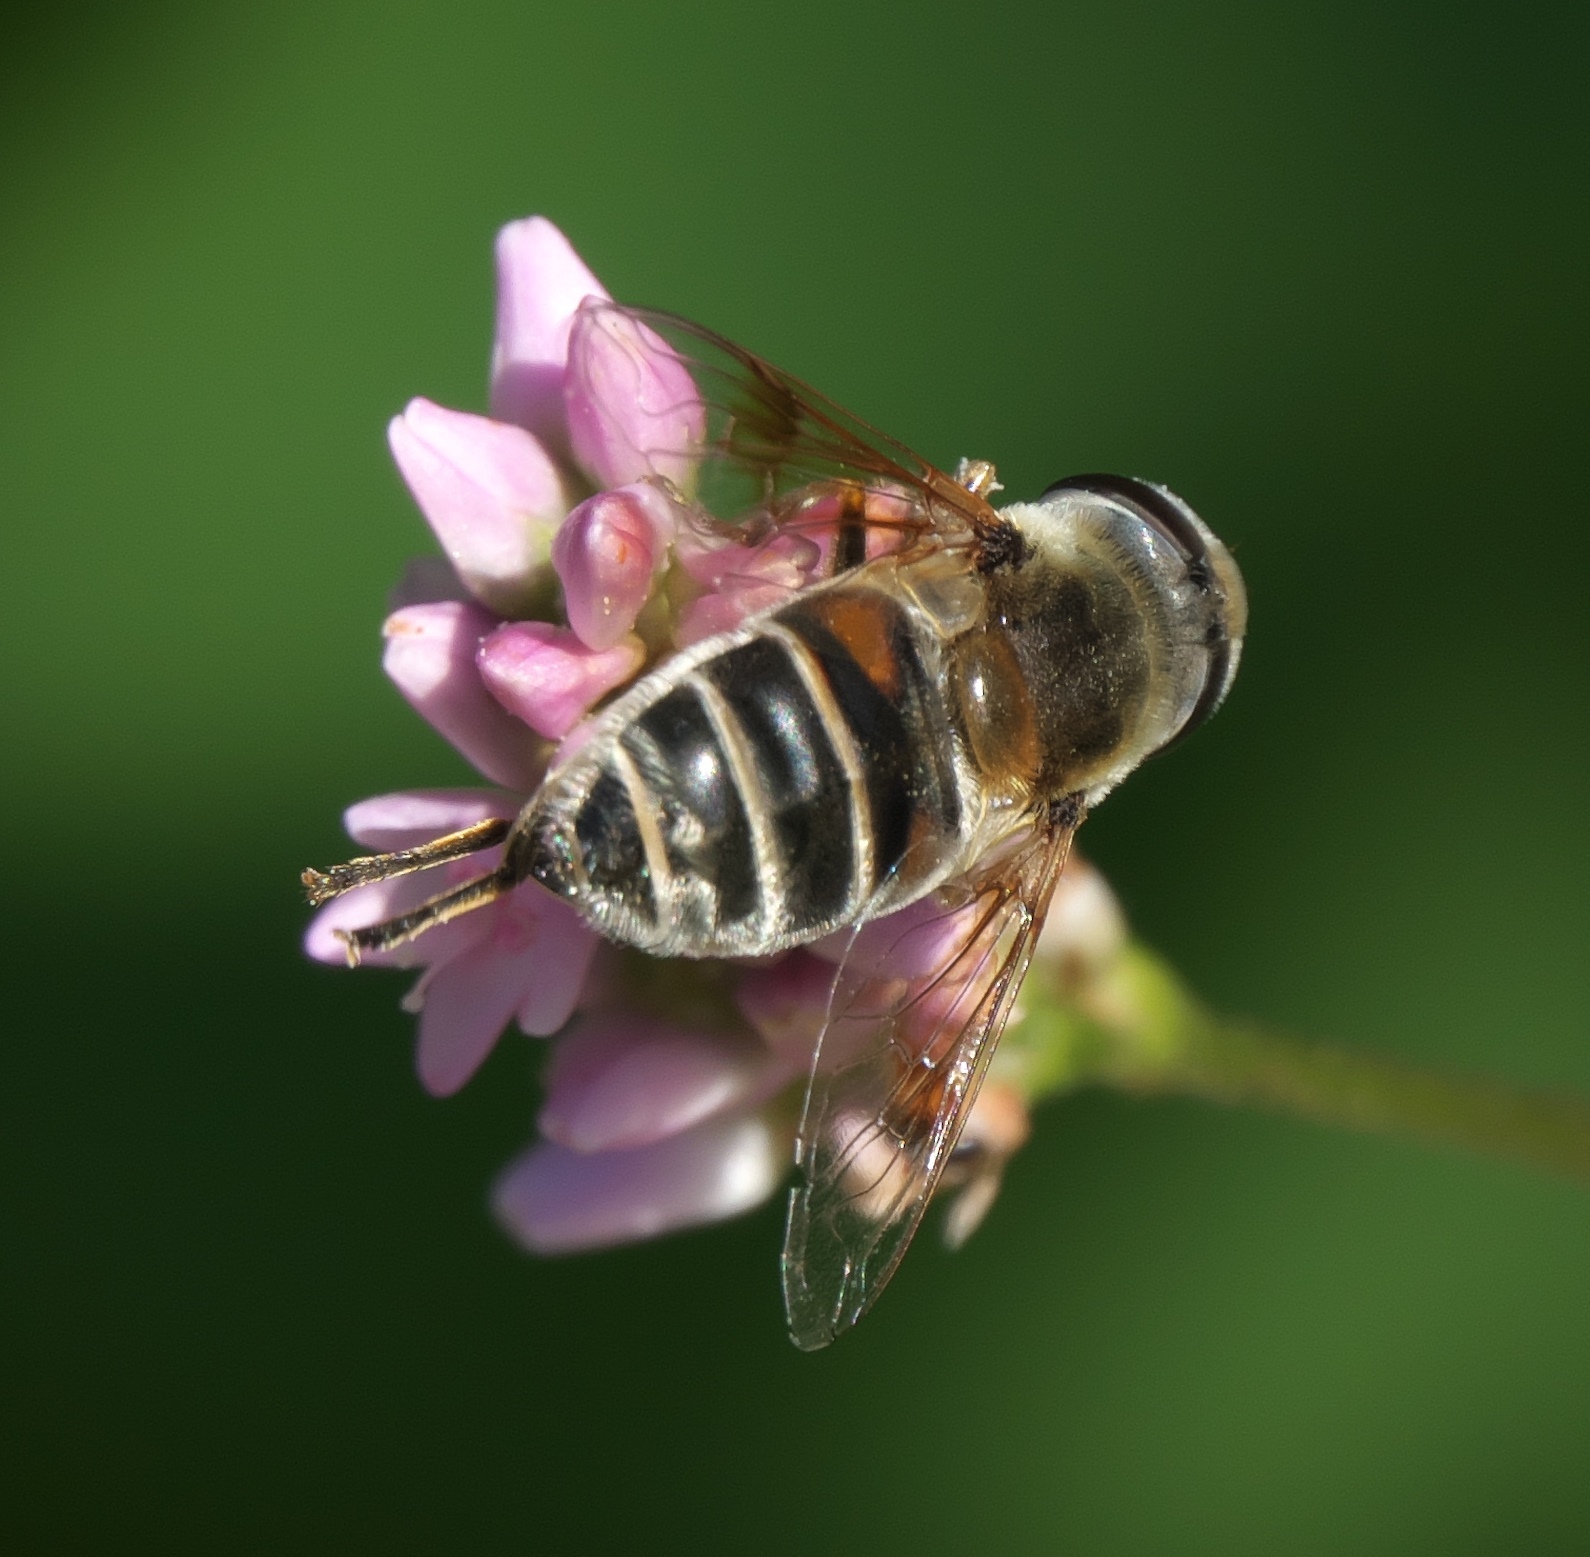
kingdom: Animalia
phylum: Arthropoda
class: Insecta
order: Diptera
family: Syrphidae
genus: Eristalis
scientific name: Eristalis stipator
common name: Yellow-shouldered drone fly
